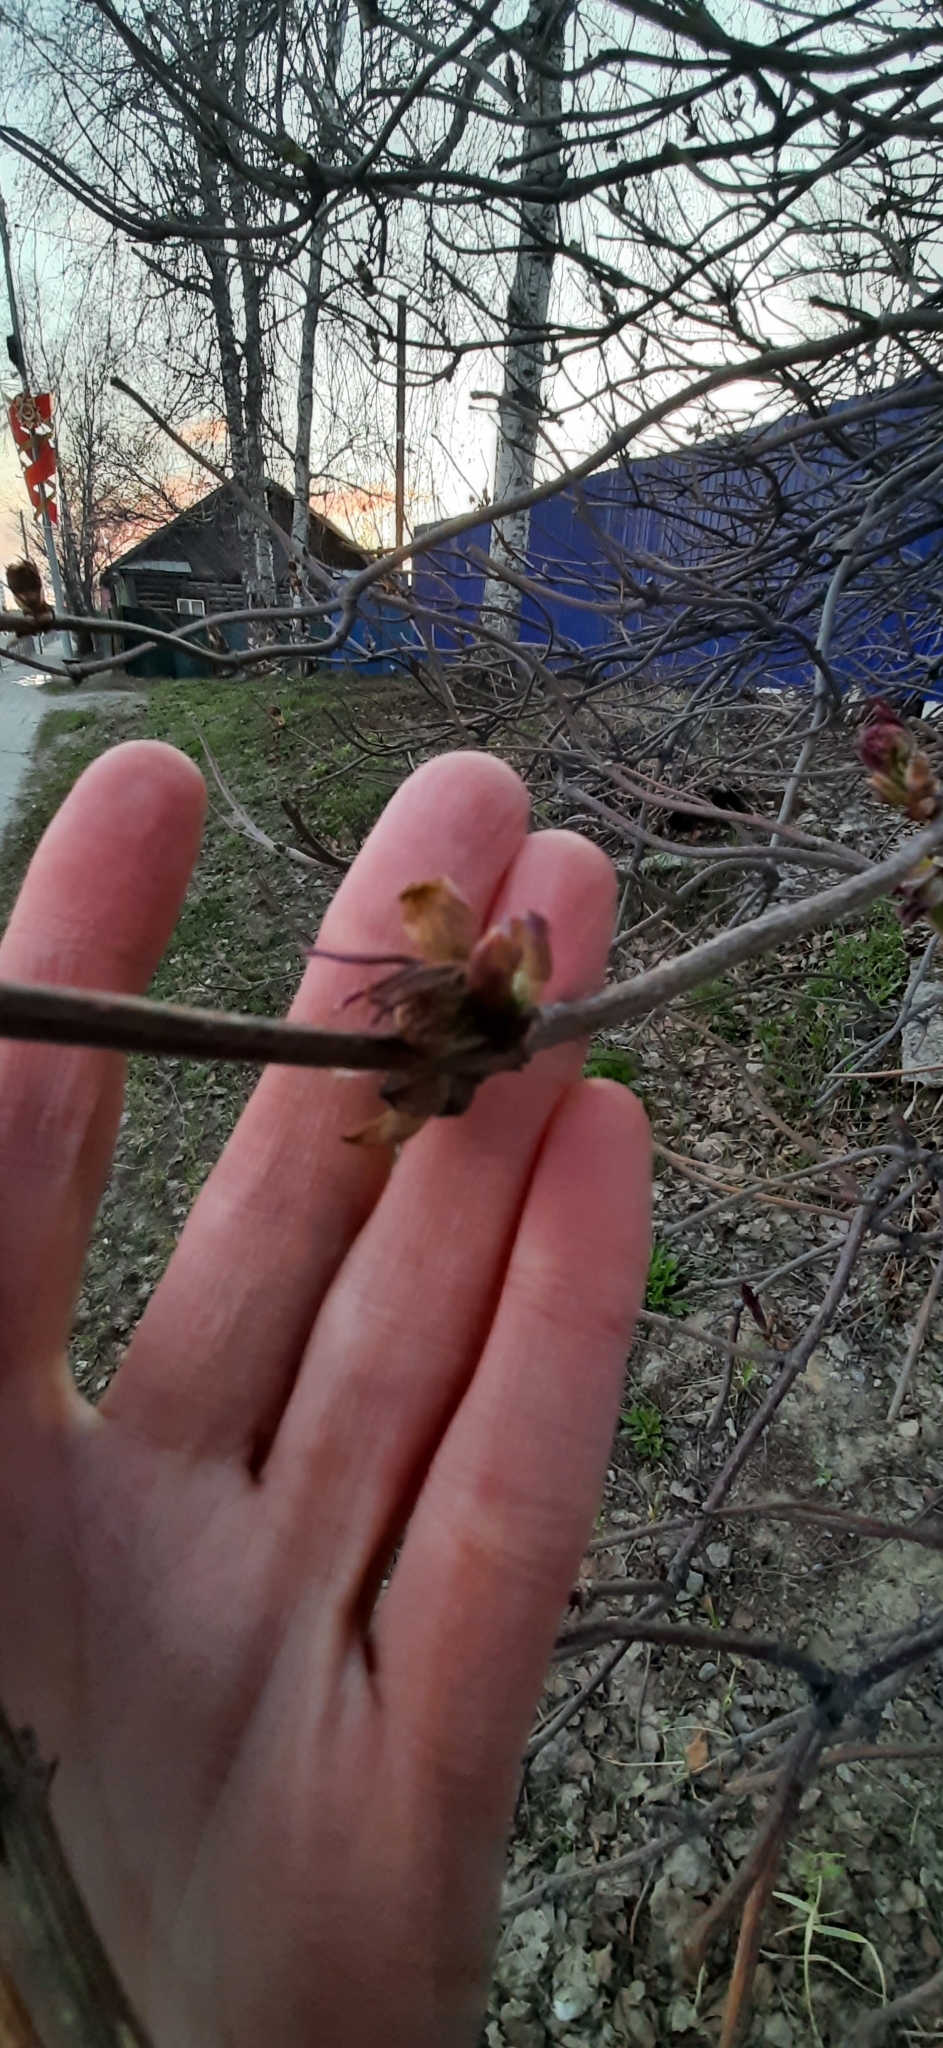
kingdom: Plantae
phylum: Tracheophyta
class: Magnoliopsida
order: Dipsacales
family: Viburnaceae
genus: Sambucus
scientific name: Sambucus sibirica
